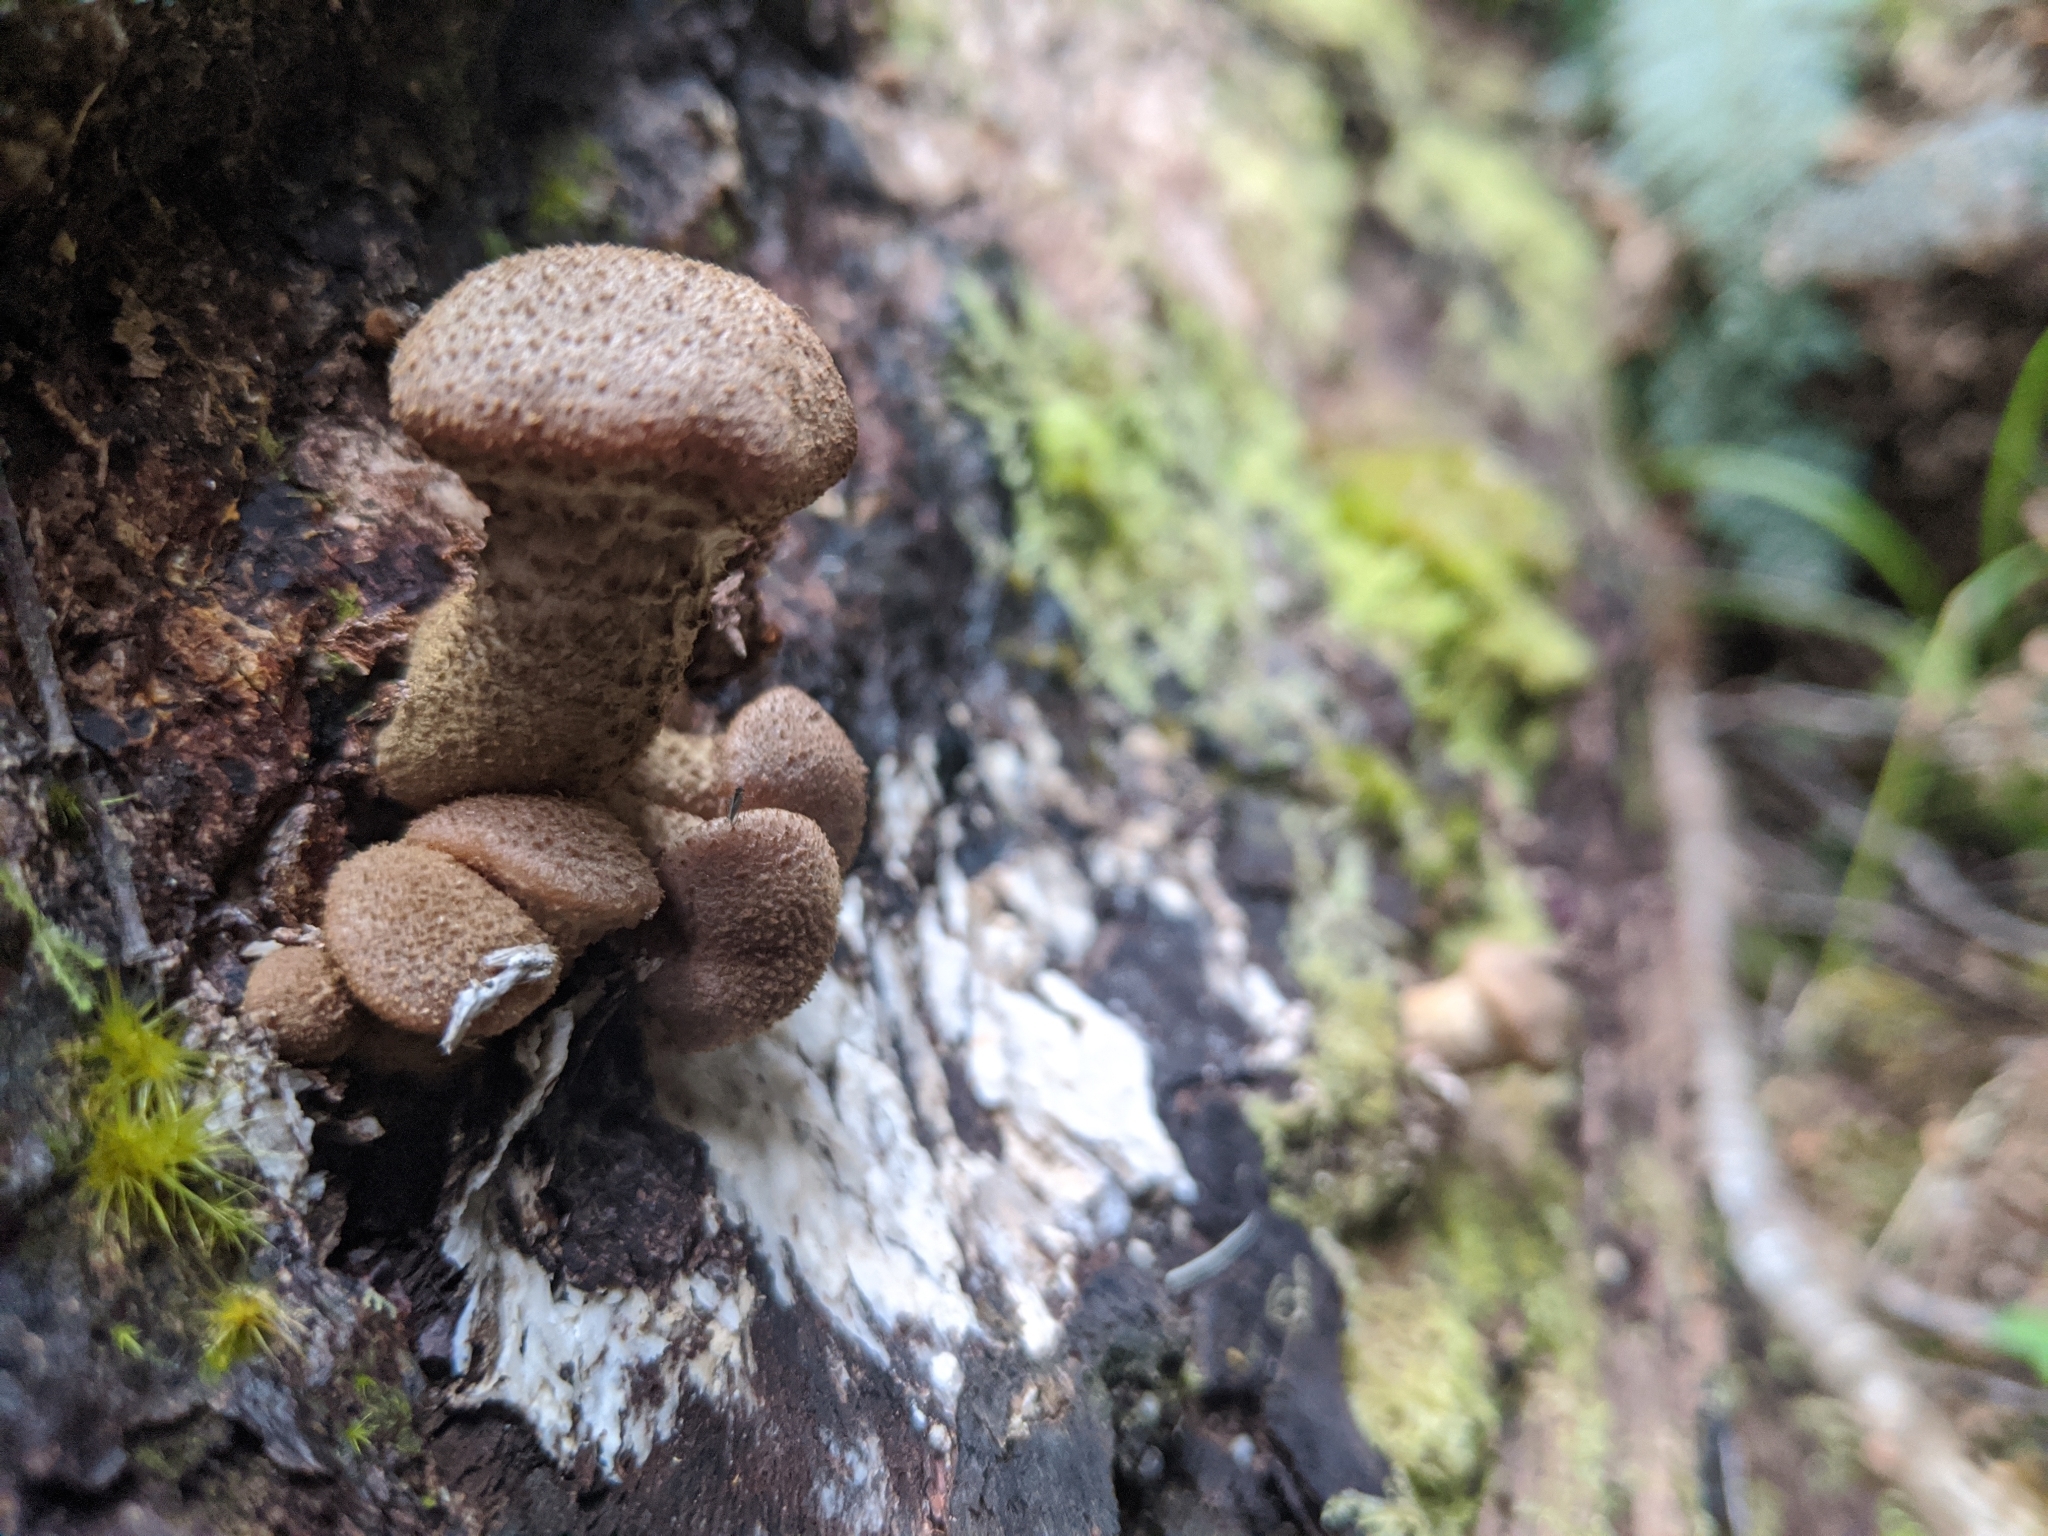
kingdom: Fungi
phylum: Basidiomycota
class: Agaricomycetes
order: Agaricales
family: Physalacriaceae
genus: Armillaria
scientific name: Armillaria novae-zelandiae
